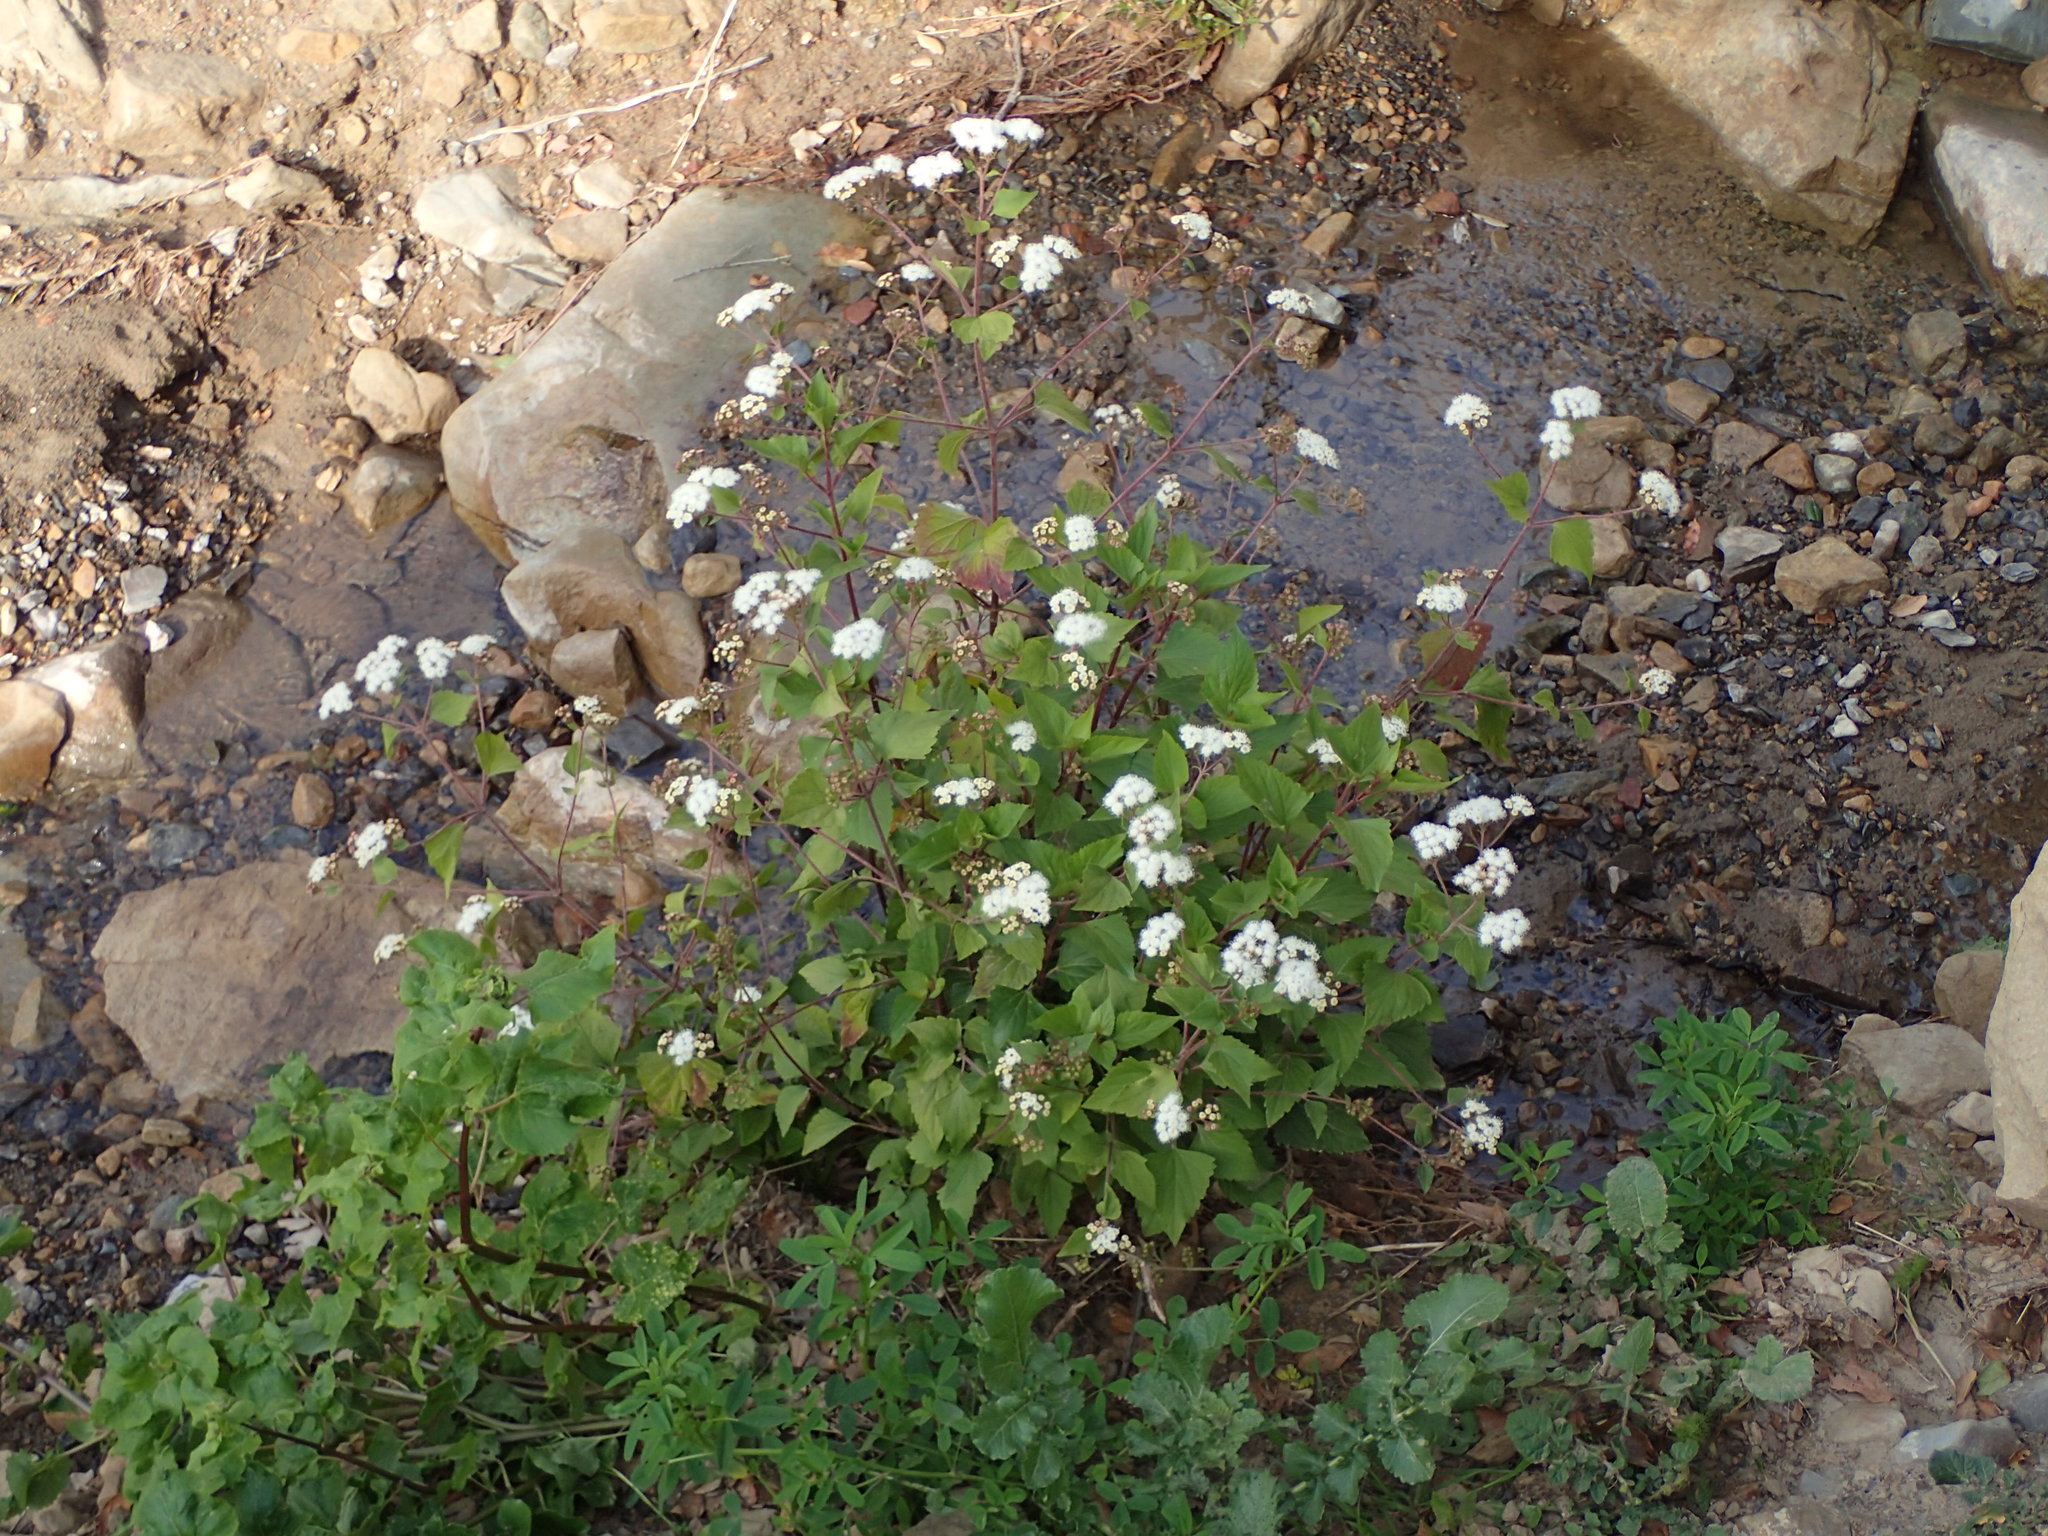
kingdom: Plantae
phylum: Tracheophyta
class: Magnoliopsida
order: Asterales
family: Asteraceae
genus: Ageratina
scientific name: Ageratina adenophora
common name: Sticky snakeroot
